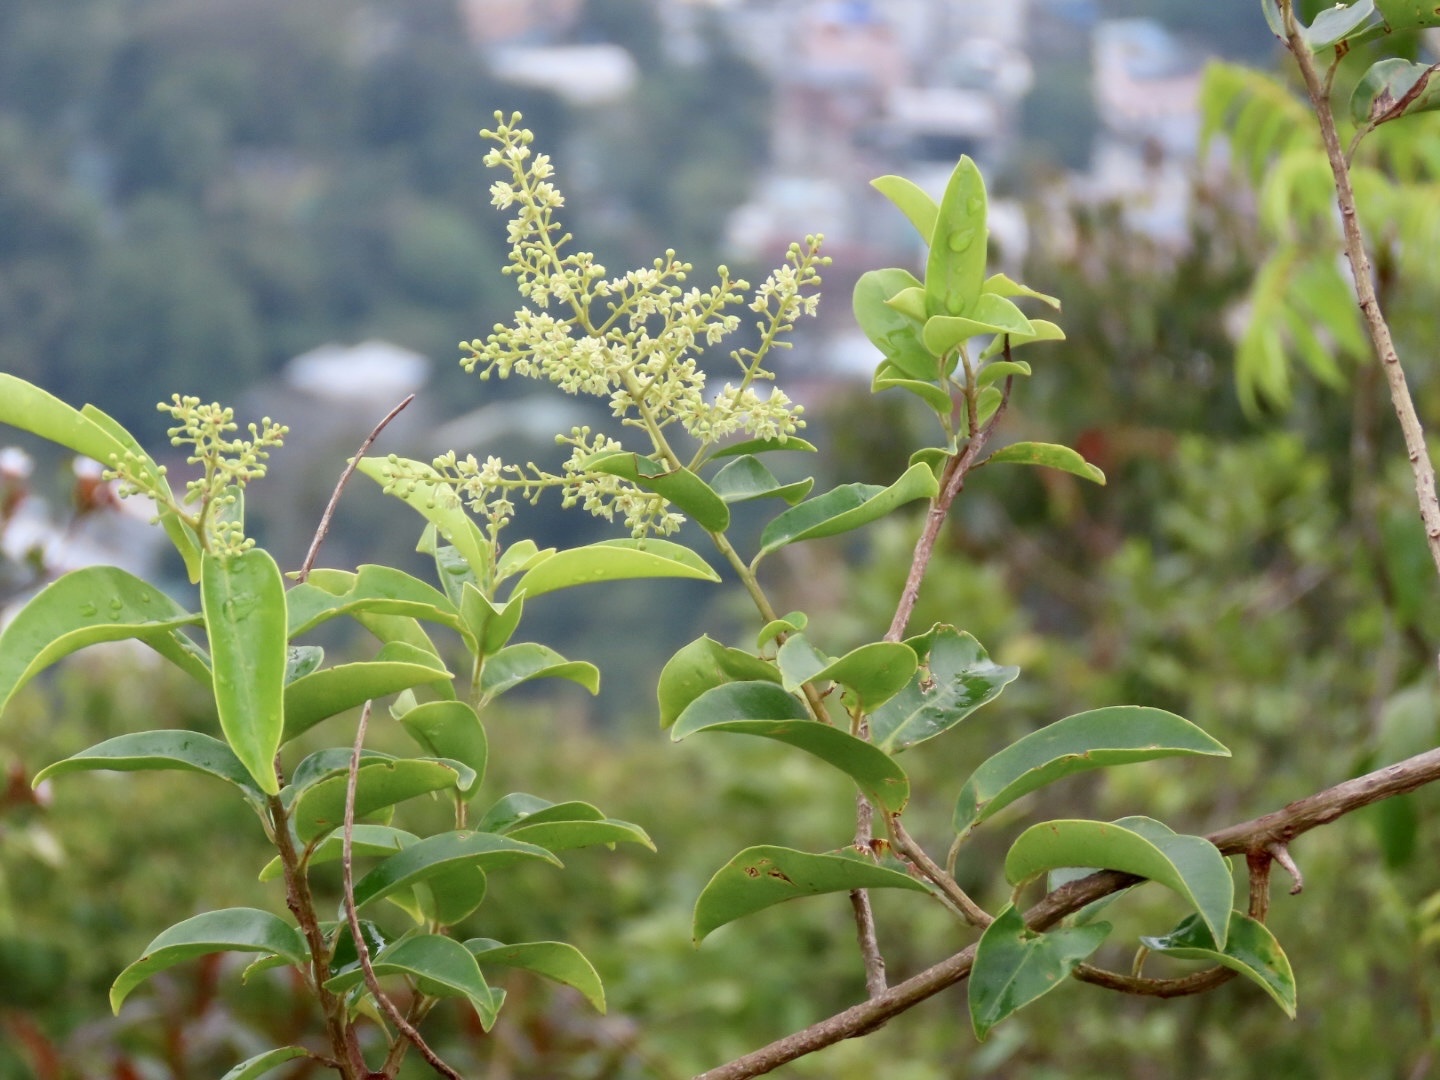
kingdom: Plantae
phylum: Tracheophyta
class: Magnoliopsida
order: Ericales
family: Primulaceae
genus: Embelia
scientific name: Embelia ribes
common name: Vidanga
